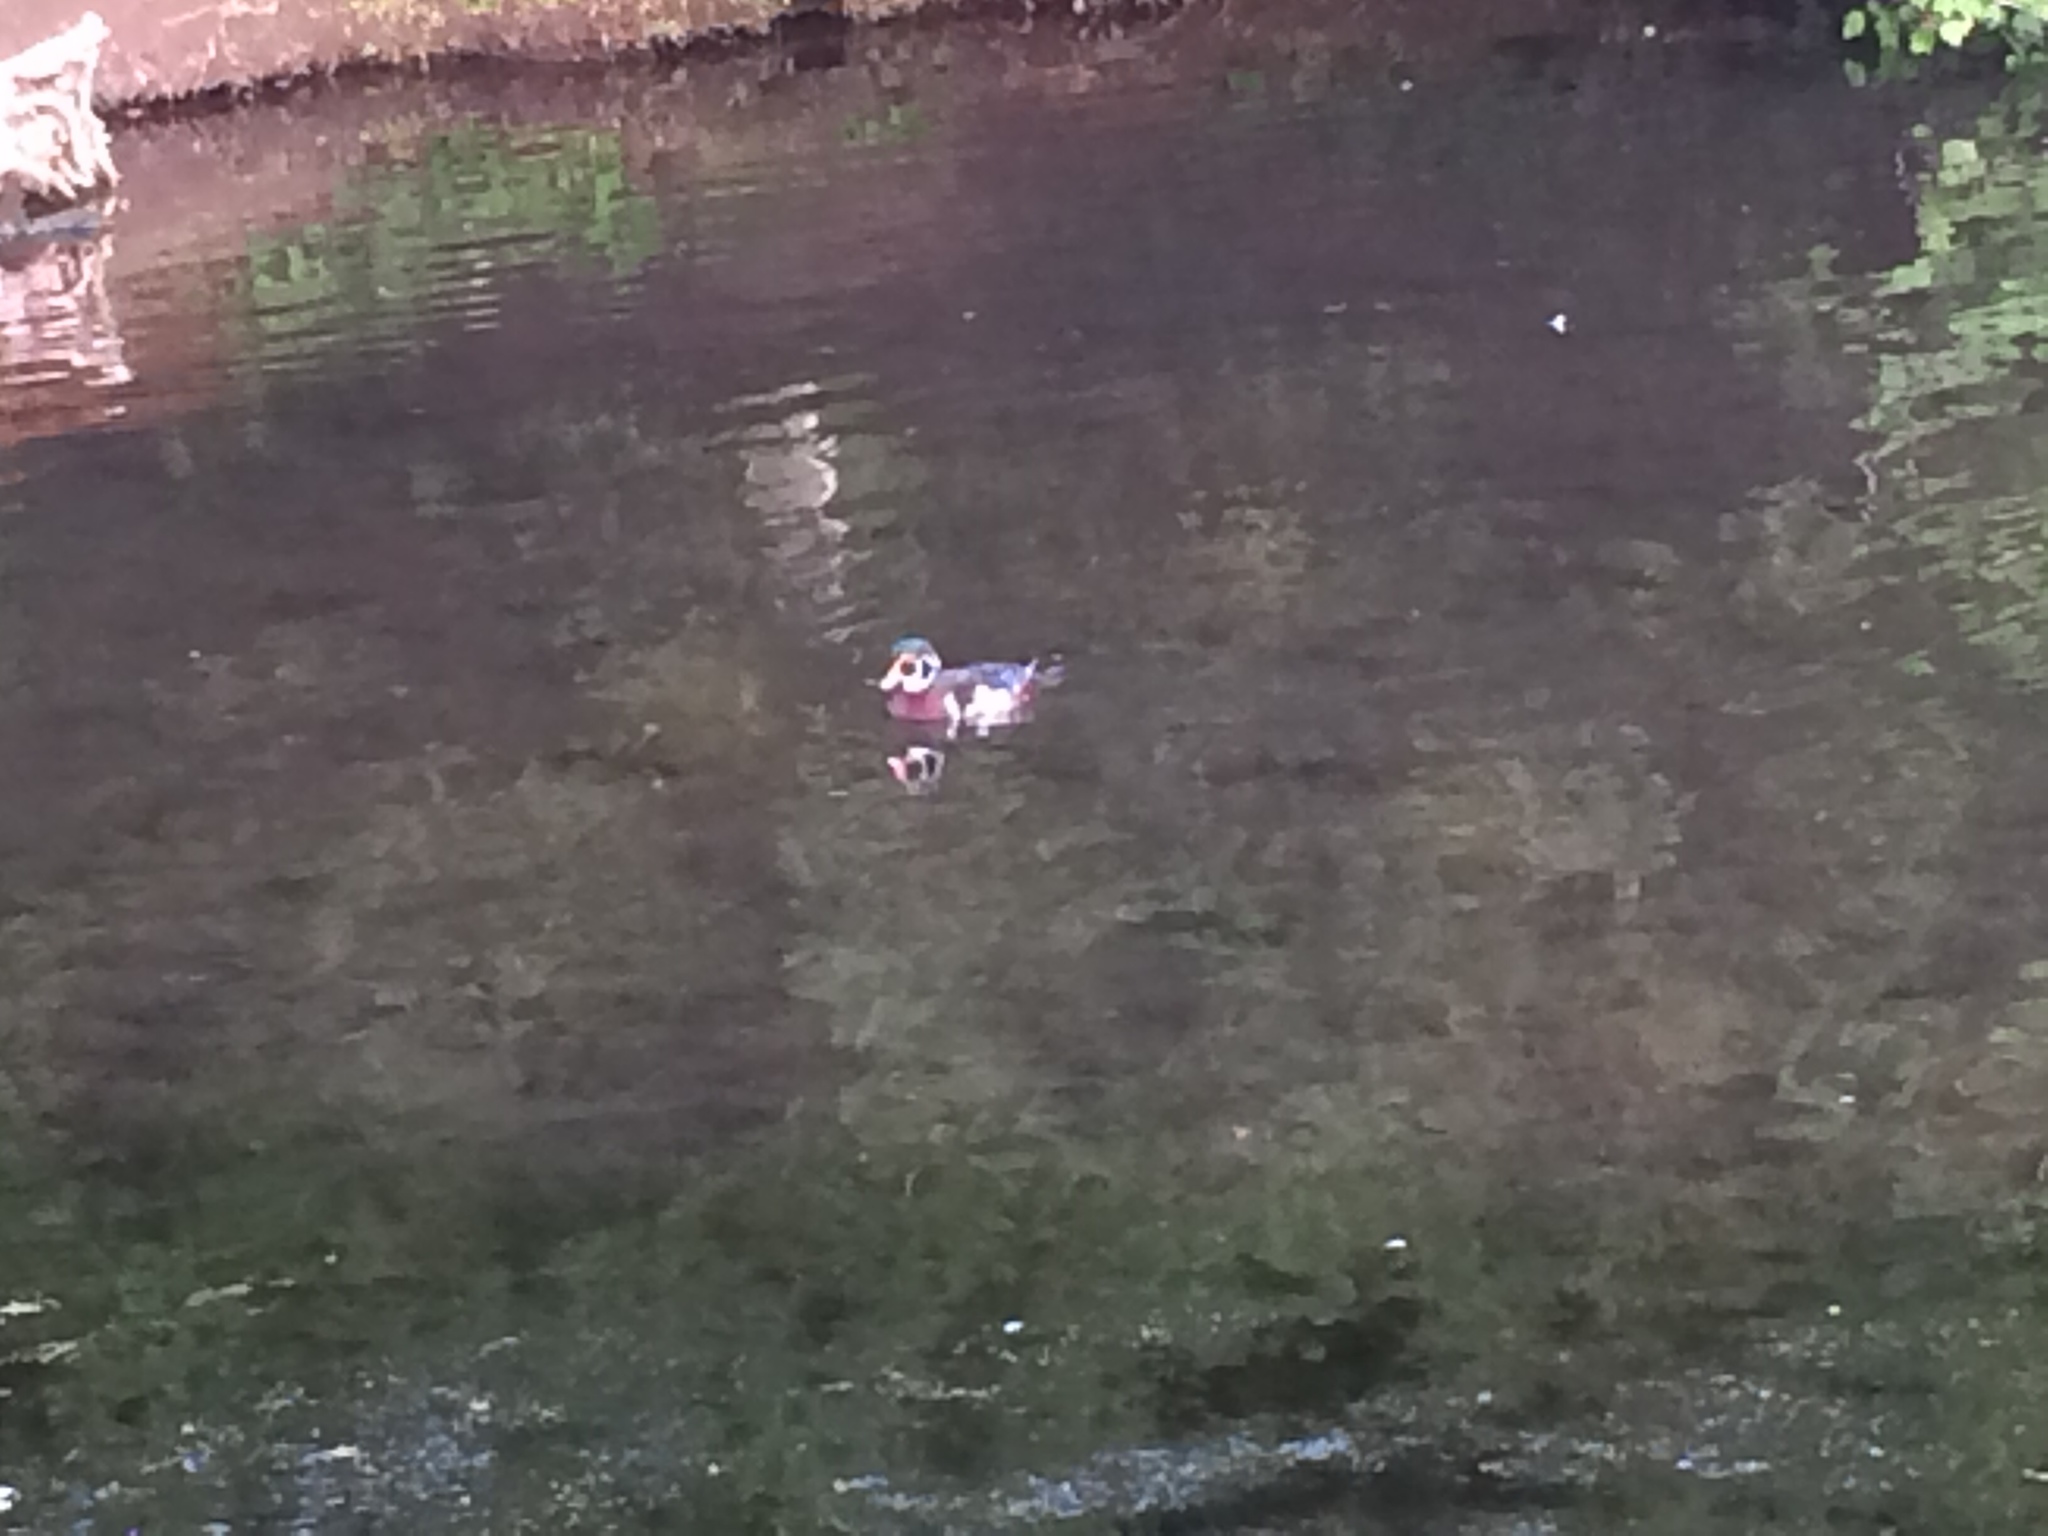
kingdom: Animalia
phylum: Chordata
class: Aves
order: Anseriformes
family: Anatidae
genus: Aix
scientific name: Aix sponsa
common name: Wood duck
